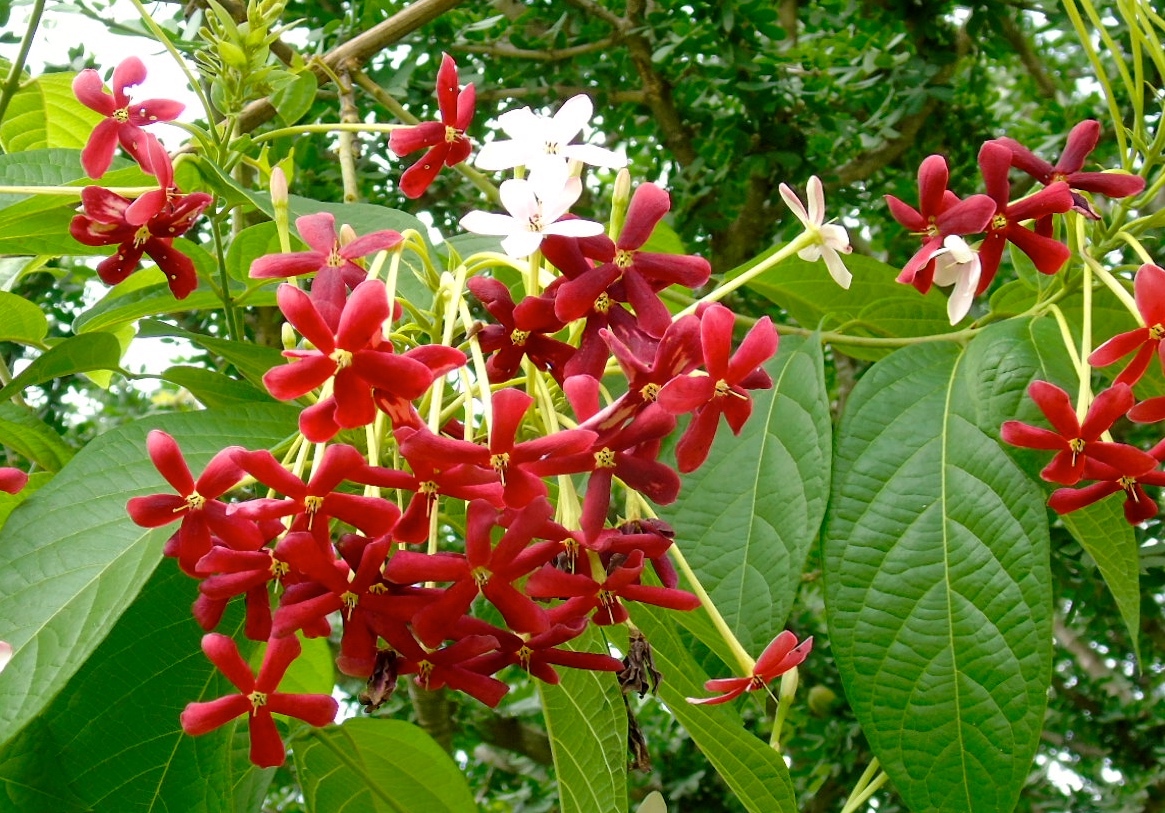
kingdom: Plantae
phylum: Tracheophyta
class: Magnoliopsida
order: Myrtales
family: Combretaceae
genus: Combretum
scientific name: Combretum indicum
